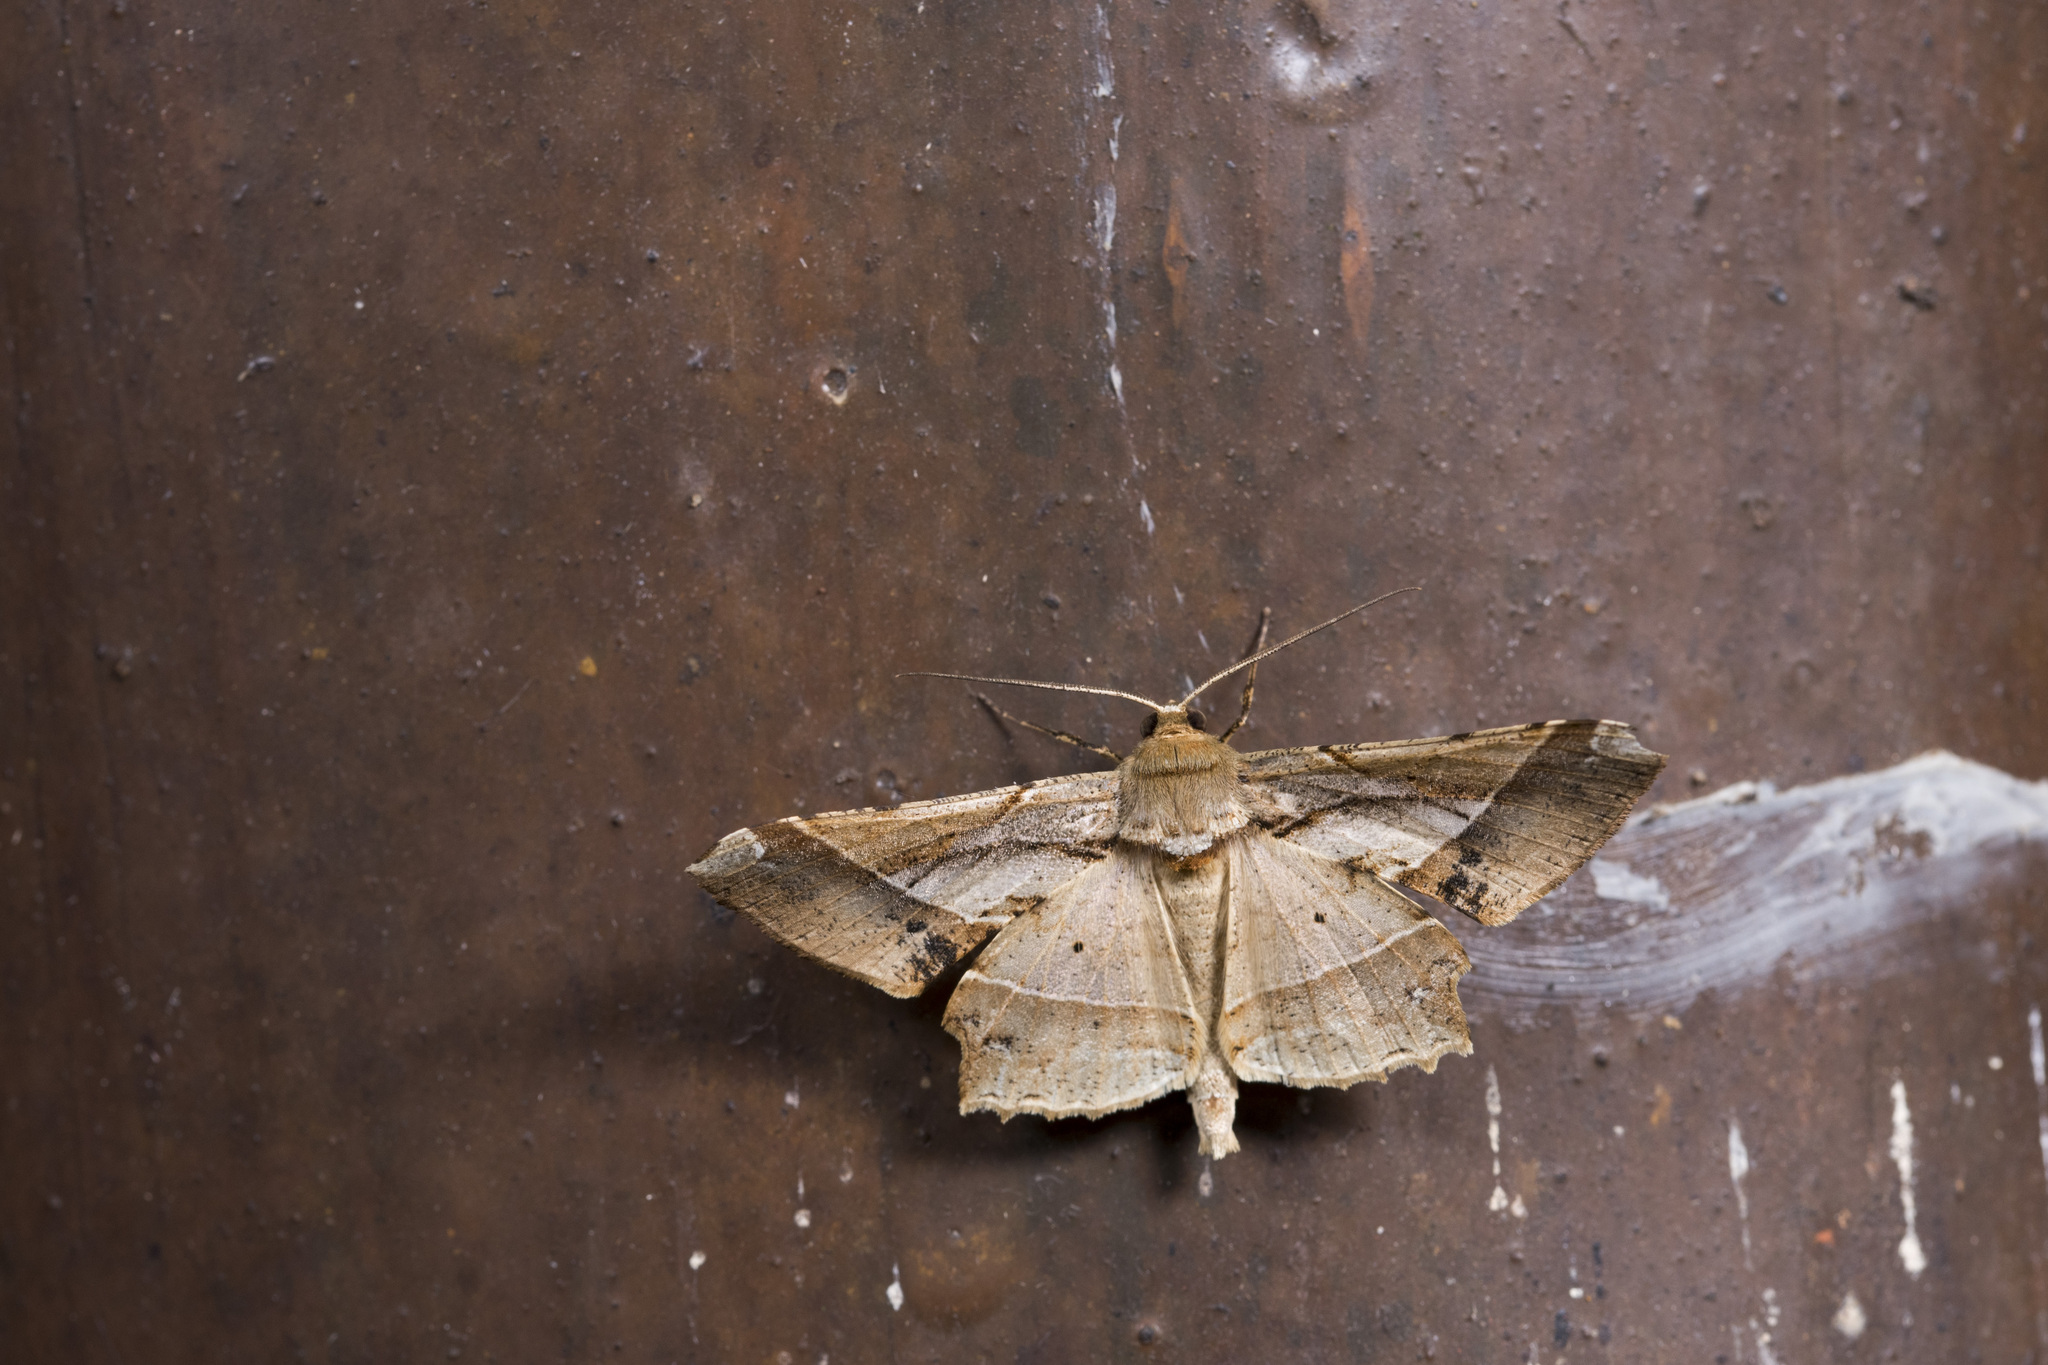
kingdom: Animalia
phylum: Arthropoda
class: Insecta
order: Lepidoptera
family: Geometridae
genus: Krananda
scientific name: Krananda latimarginaria
